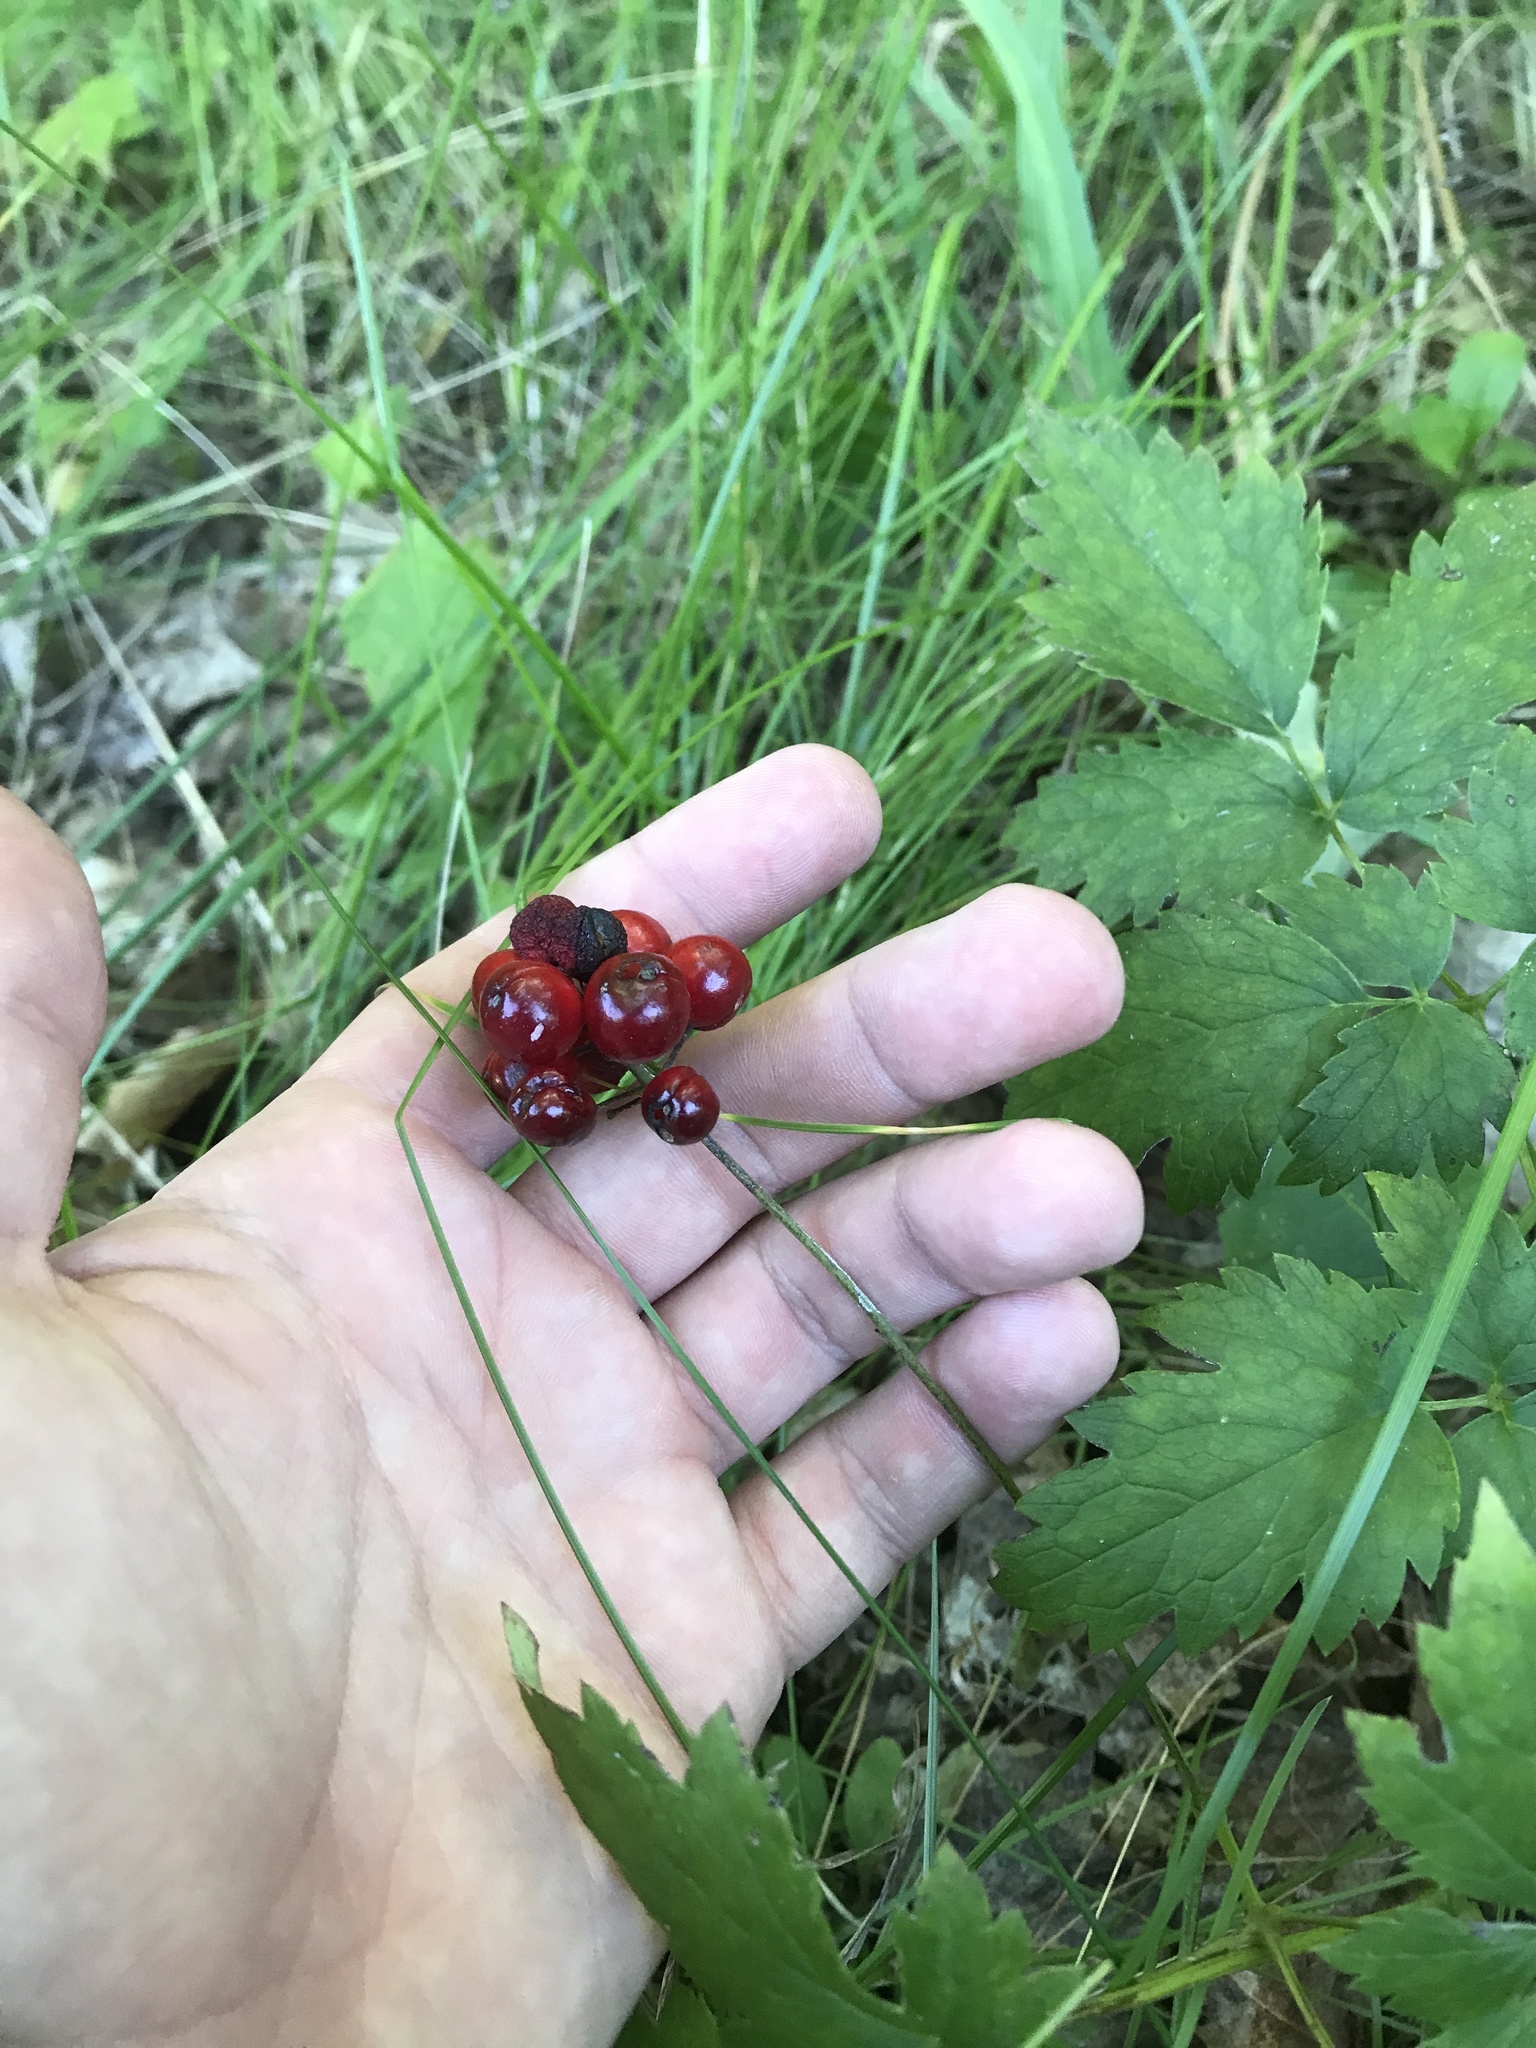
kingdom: Plantae
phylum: Tracheophyta
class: Magnoliopsida
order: Ranunculales
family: Ranunculaceae
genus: Actaea
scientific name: Actaea rubra
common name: Red baneberry
